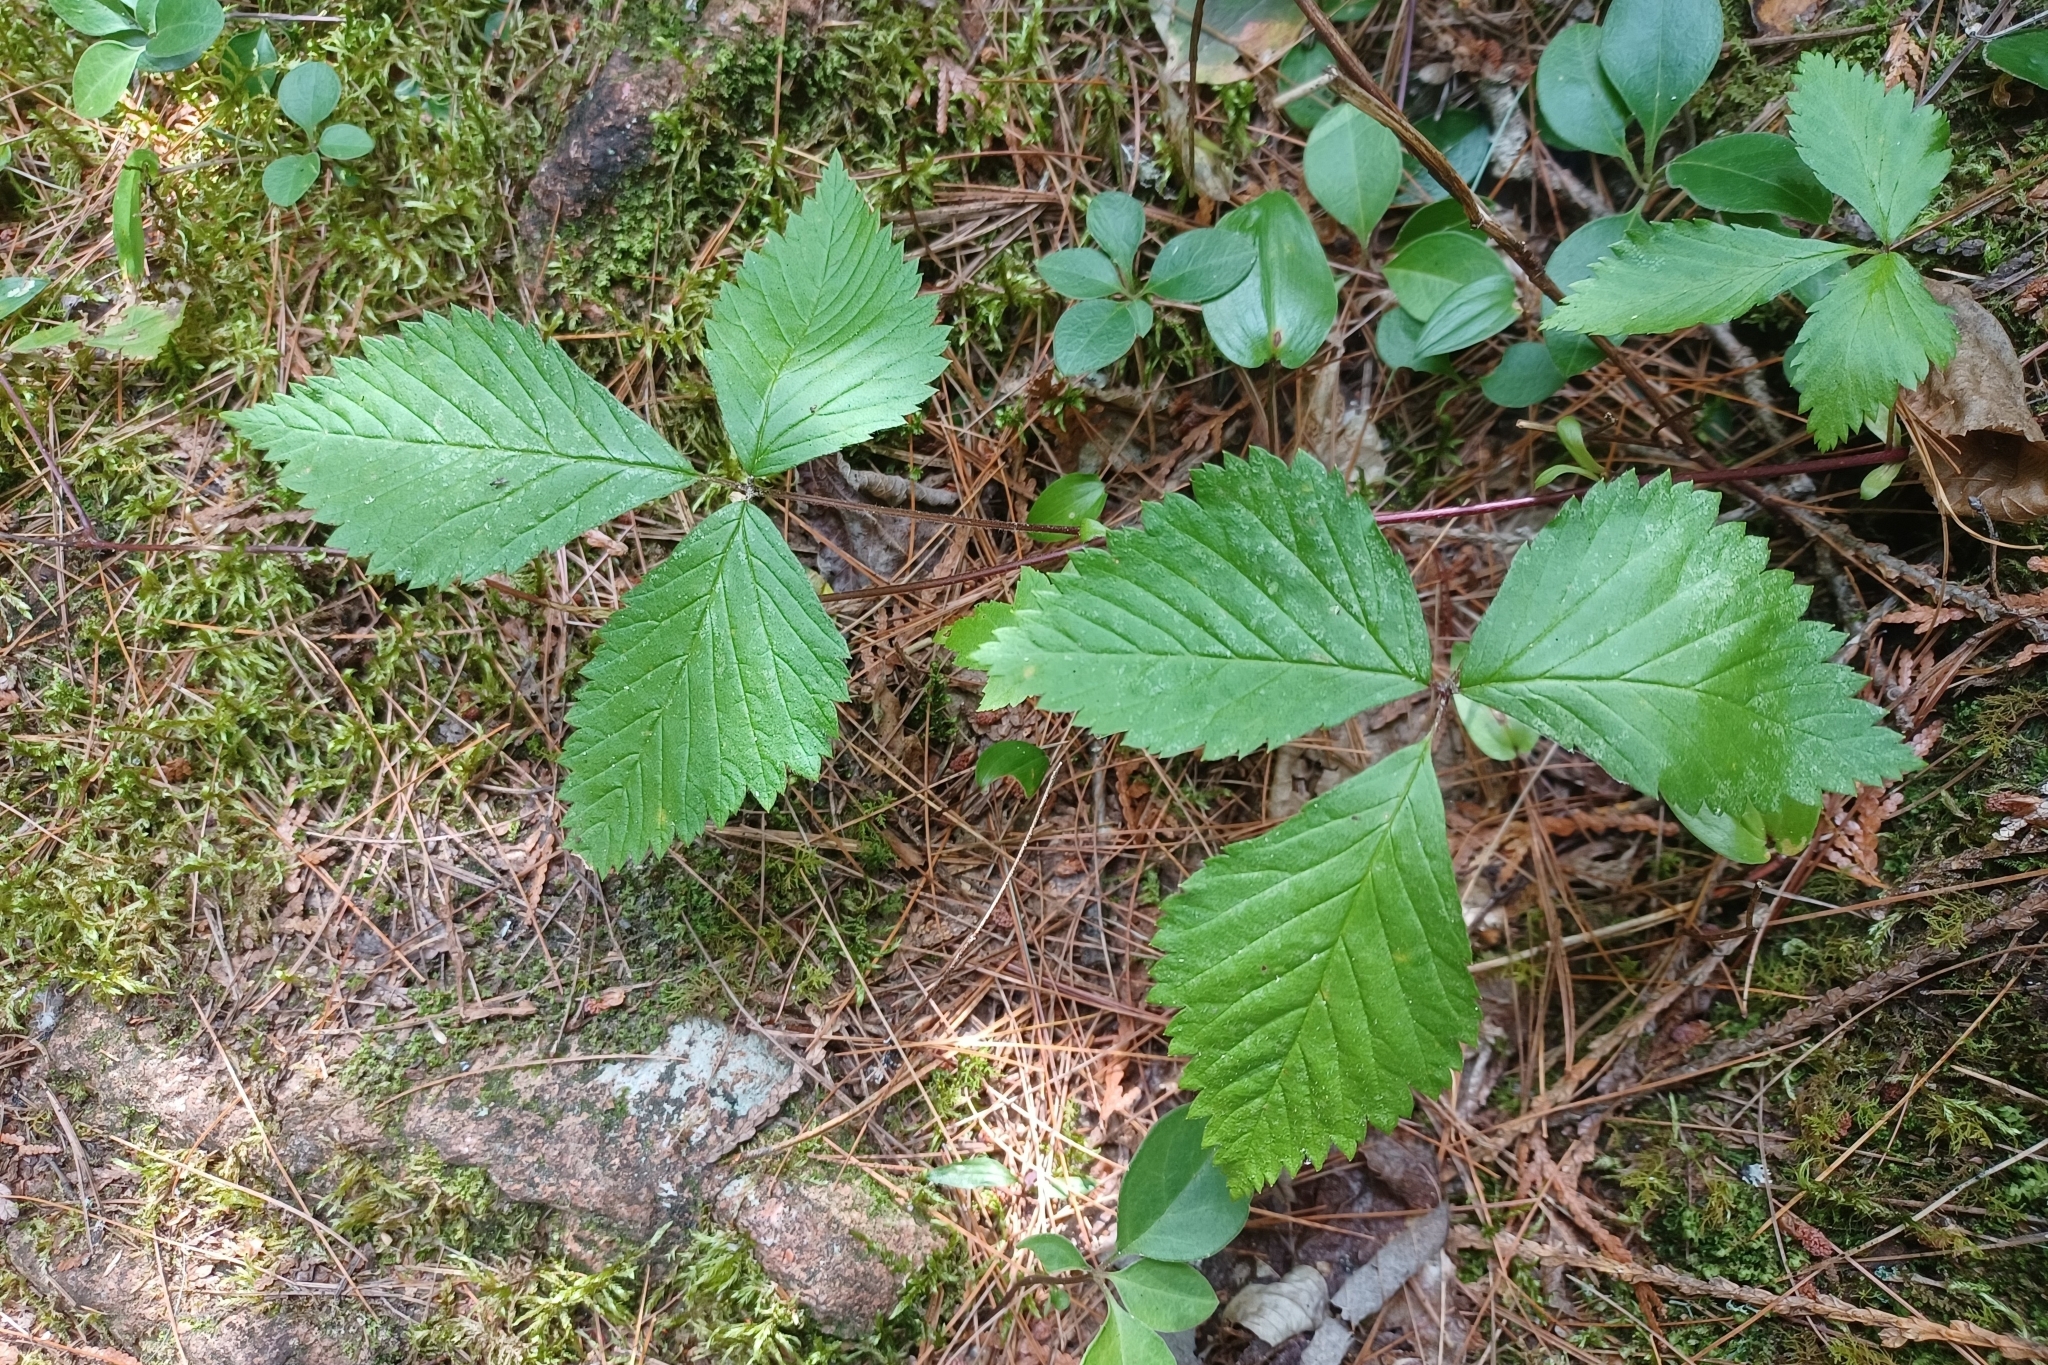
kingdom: Plantae
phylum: Tracheophyta
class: Magnoliopsida
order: Rosales
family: Rosaceae
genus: Fragaria
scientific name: Fragaria vesca
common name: Wild strawberry
